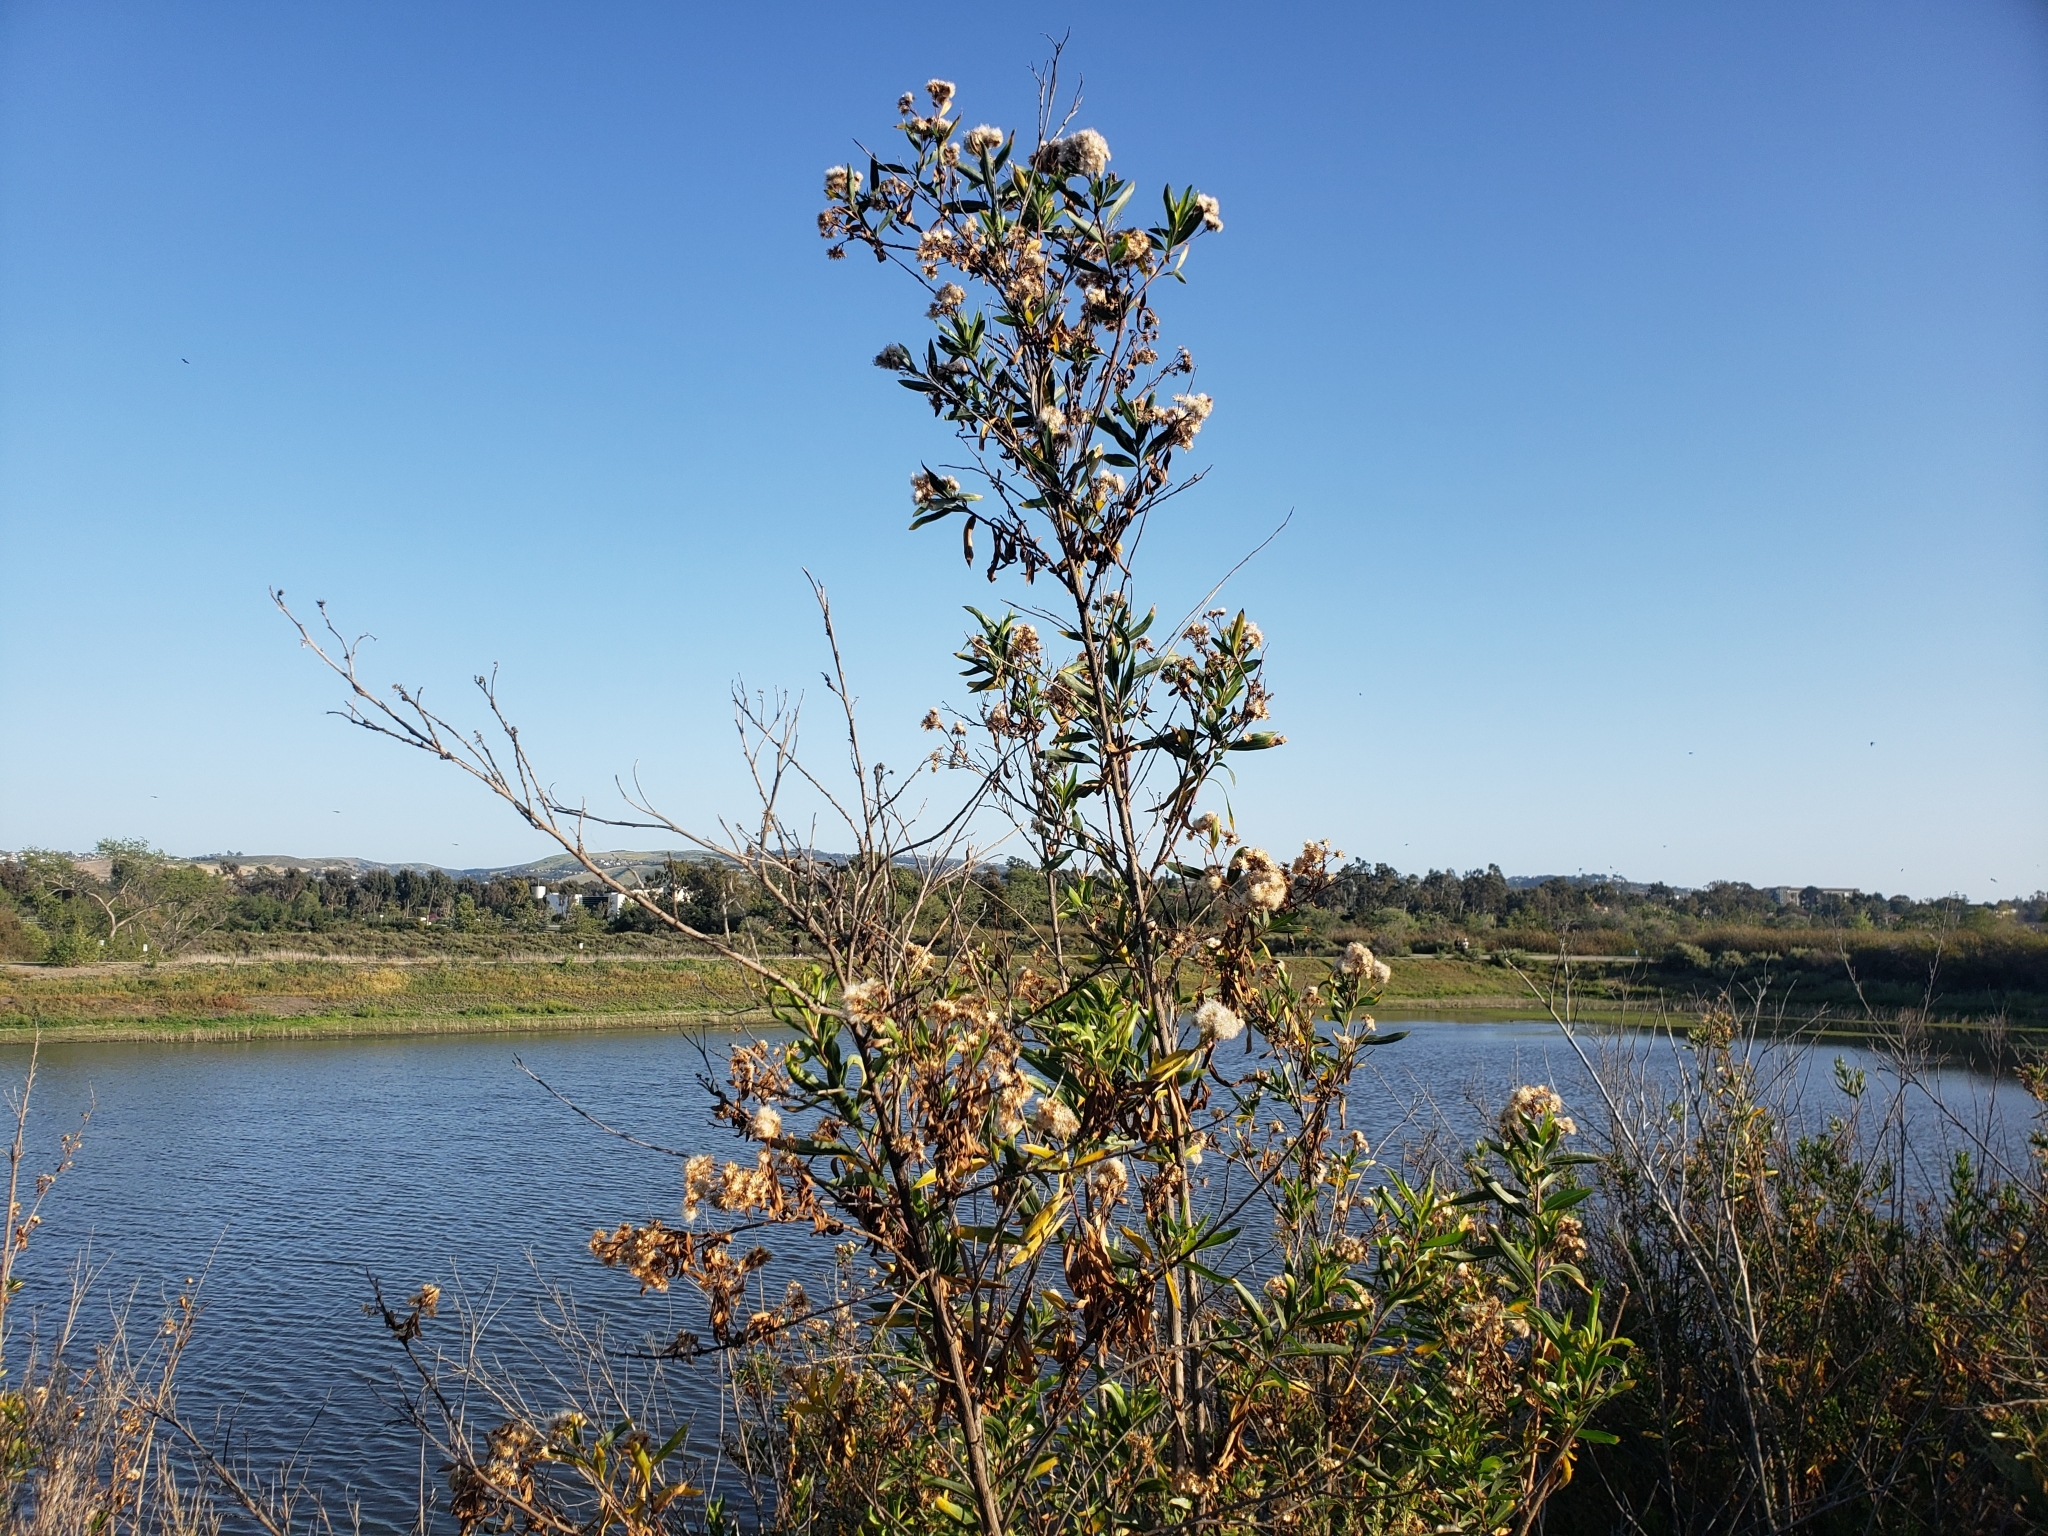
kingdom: Plantae
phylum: Tracheophyta
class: Magnoliopsida
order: Asterales
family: Asteraceae
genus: Baccharis
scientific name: Baccharis salicifolia
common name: Sticky baccharis
